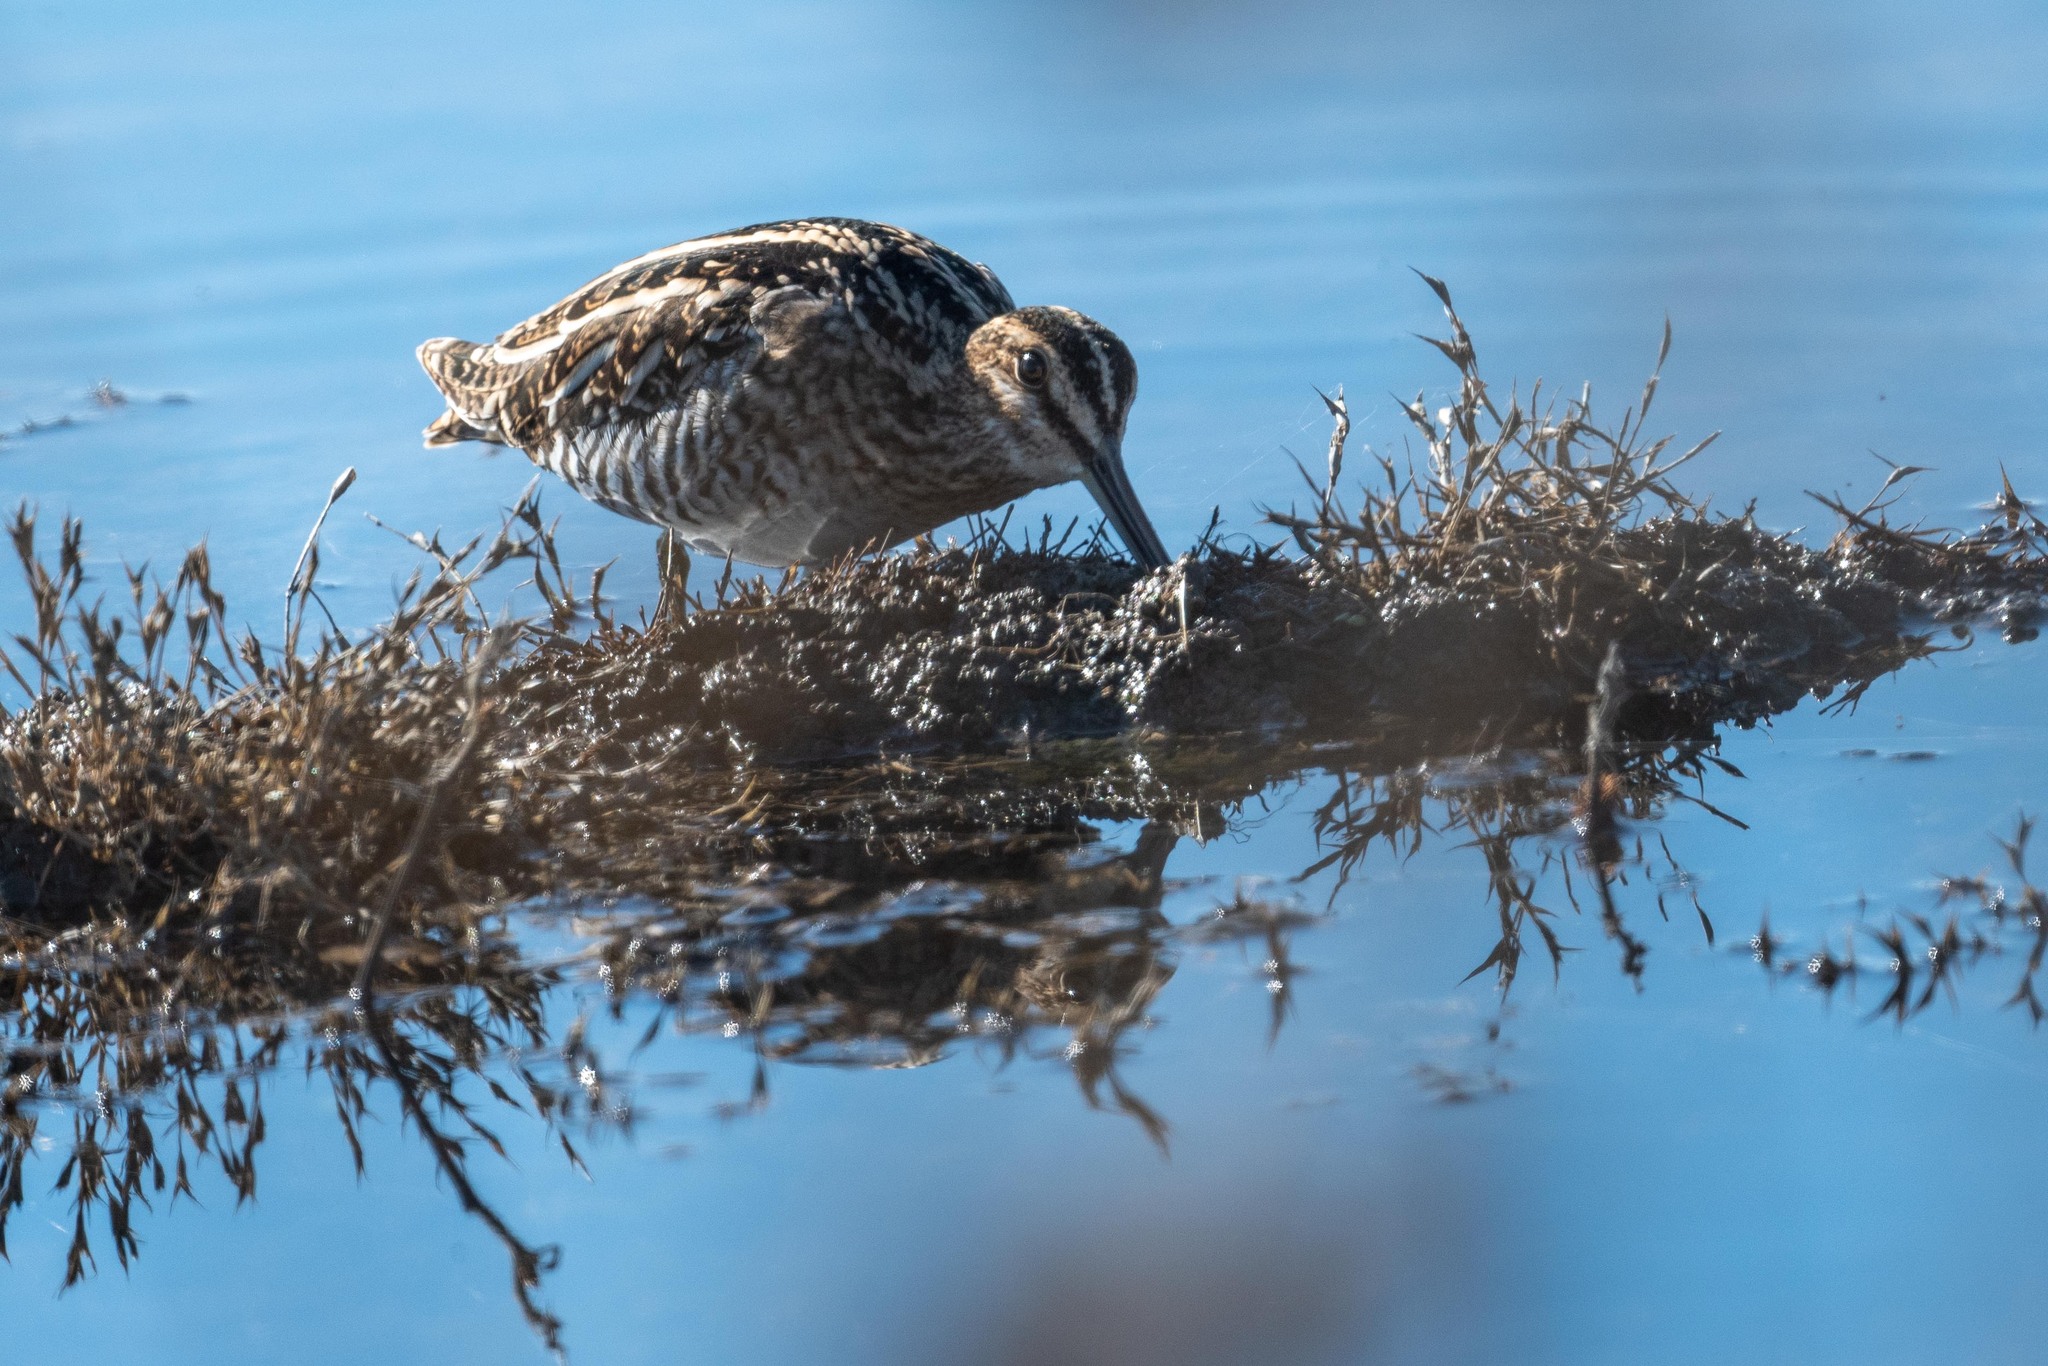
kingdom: Animalia
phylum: Chordata
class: Aves
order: Charadriiformes
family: Scolopacidae
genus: Gallinago
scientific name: Gallinago delicata
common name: Wilson's snipe
